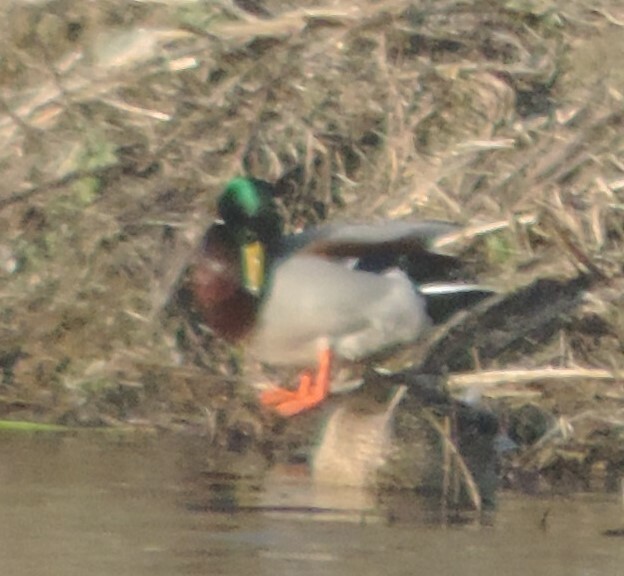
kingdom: Animalia
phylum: Chordata
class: Aves
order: Anseriformes
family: Anatidae
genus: Anas
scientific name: Anas platyrhynchos
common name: Mallard
